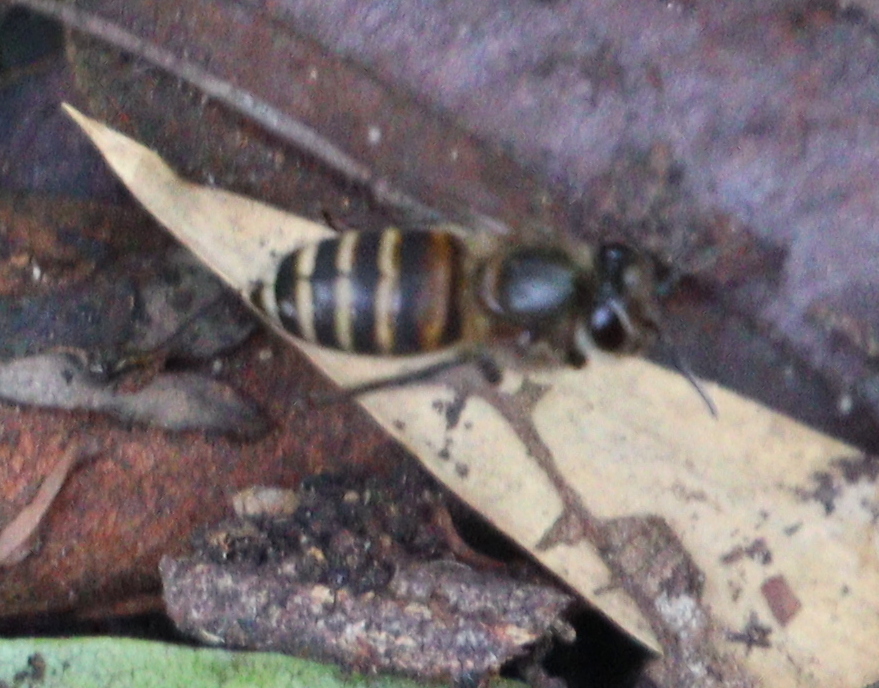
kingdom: Animalia
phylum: Arthropoda
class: Insecta
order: Hymenoptera
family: Apidae
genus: Apis
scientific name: Apis cerana
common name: Honey bee
